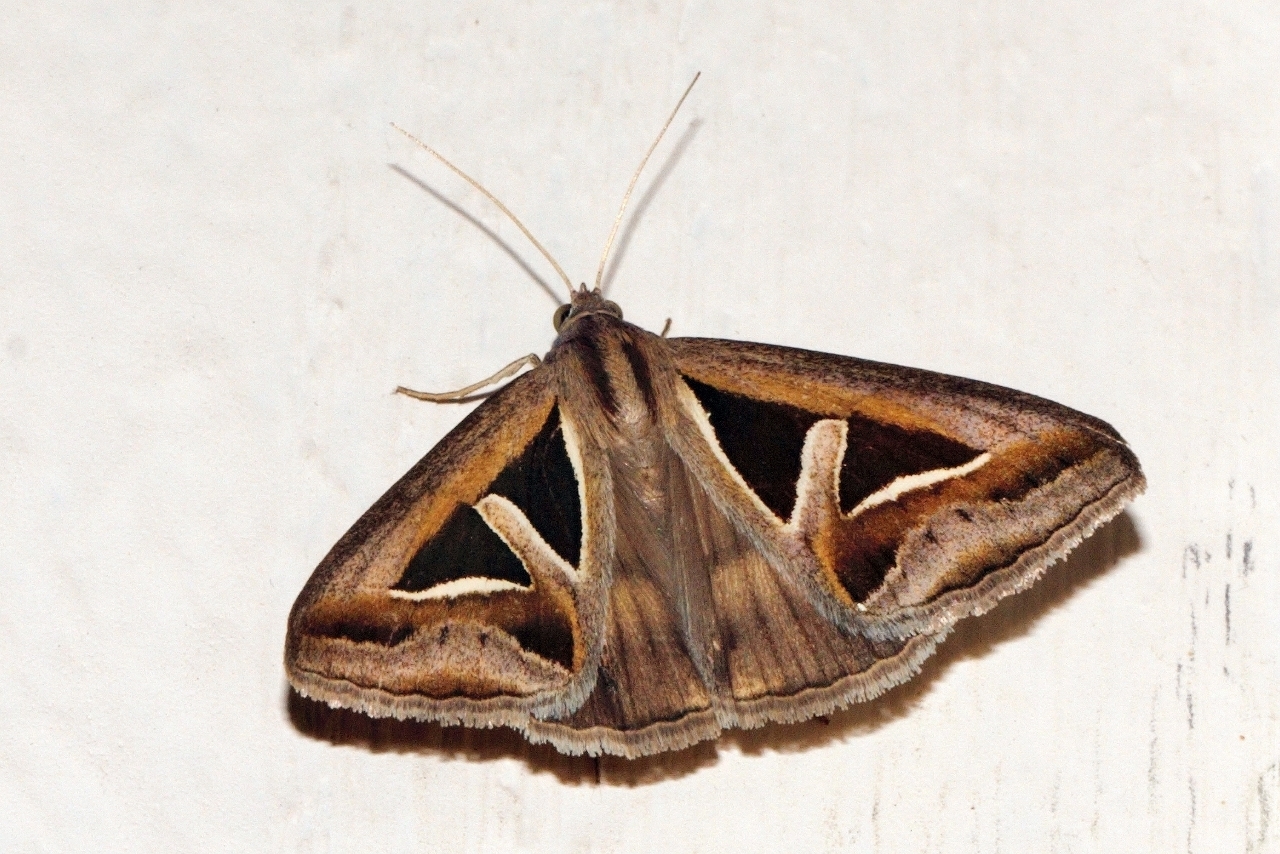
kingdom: Animalia
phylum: Arthropoda
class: Insecta
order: Lepidoptera
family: Erebidae
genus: Trigonodes
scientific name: Trigonodes hyppasia
